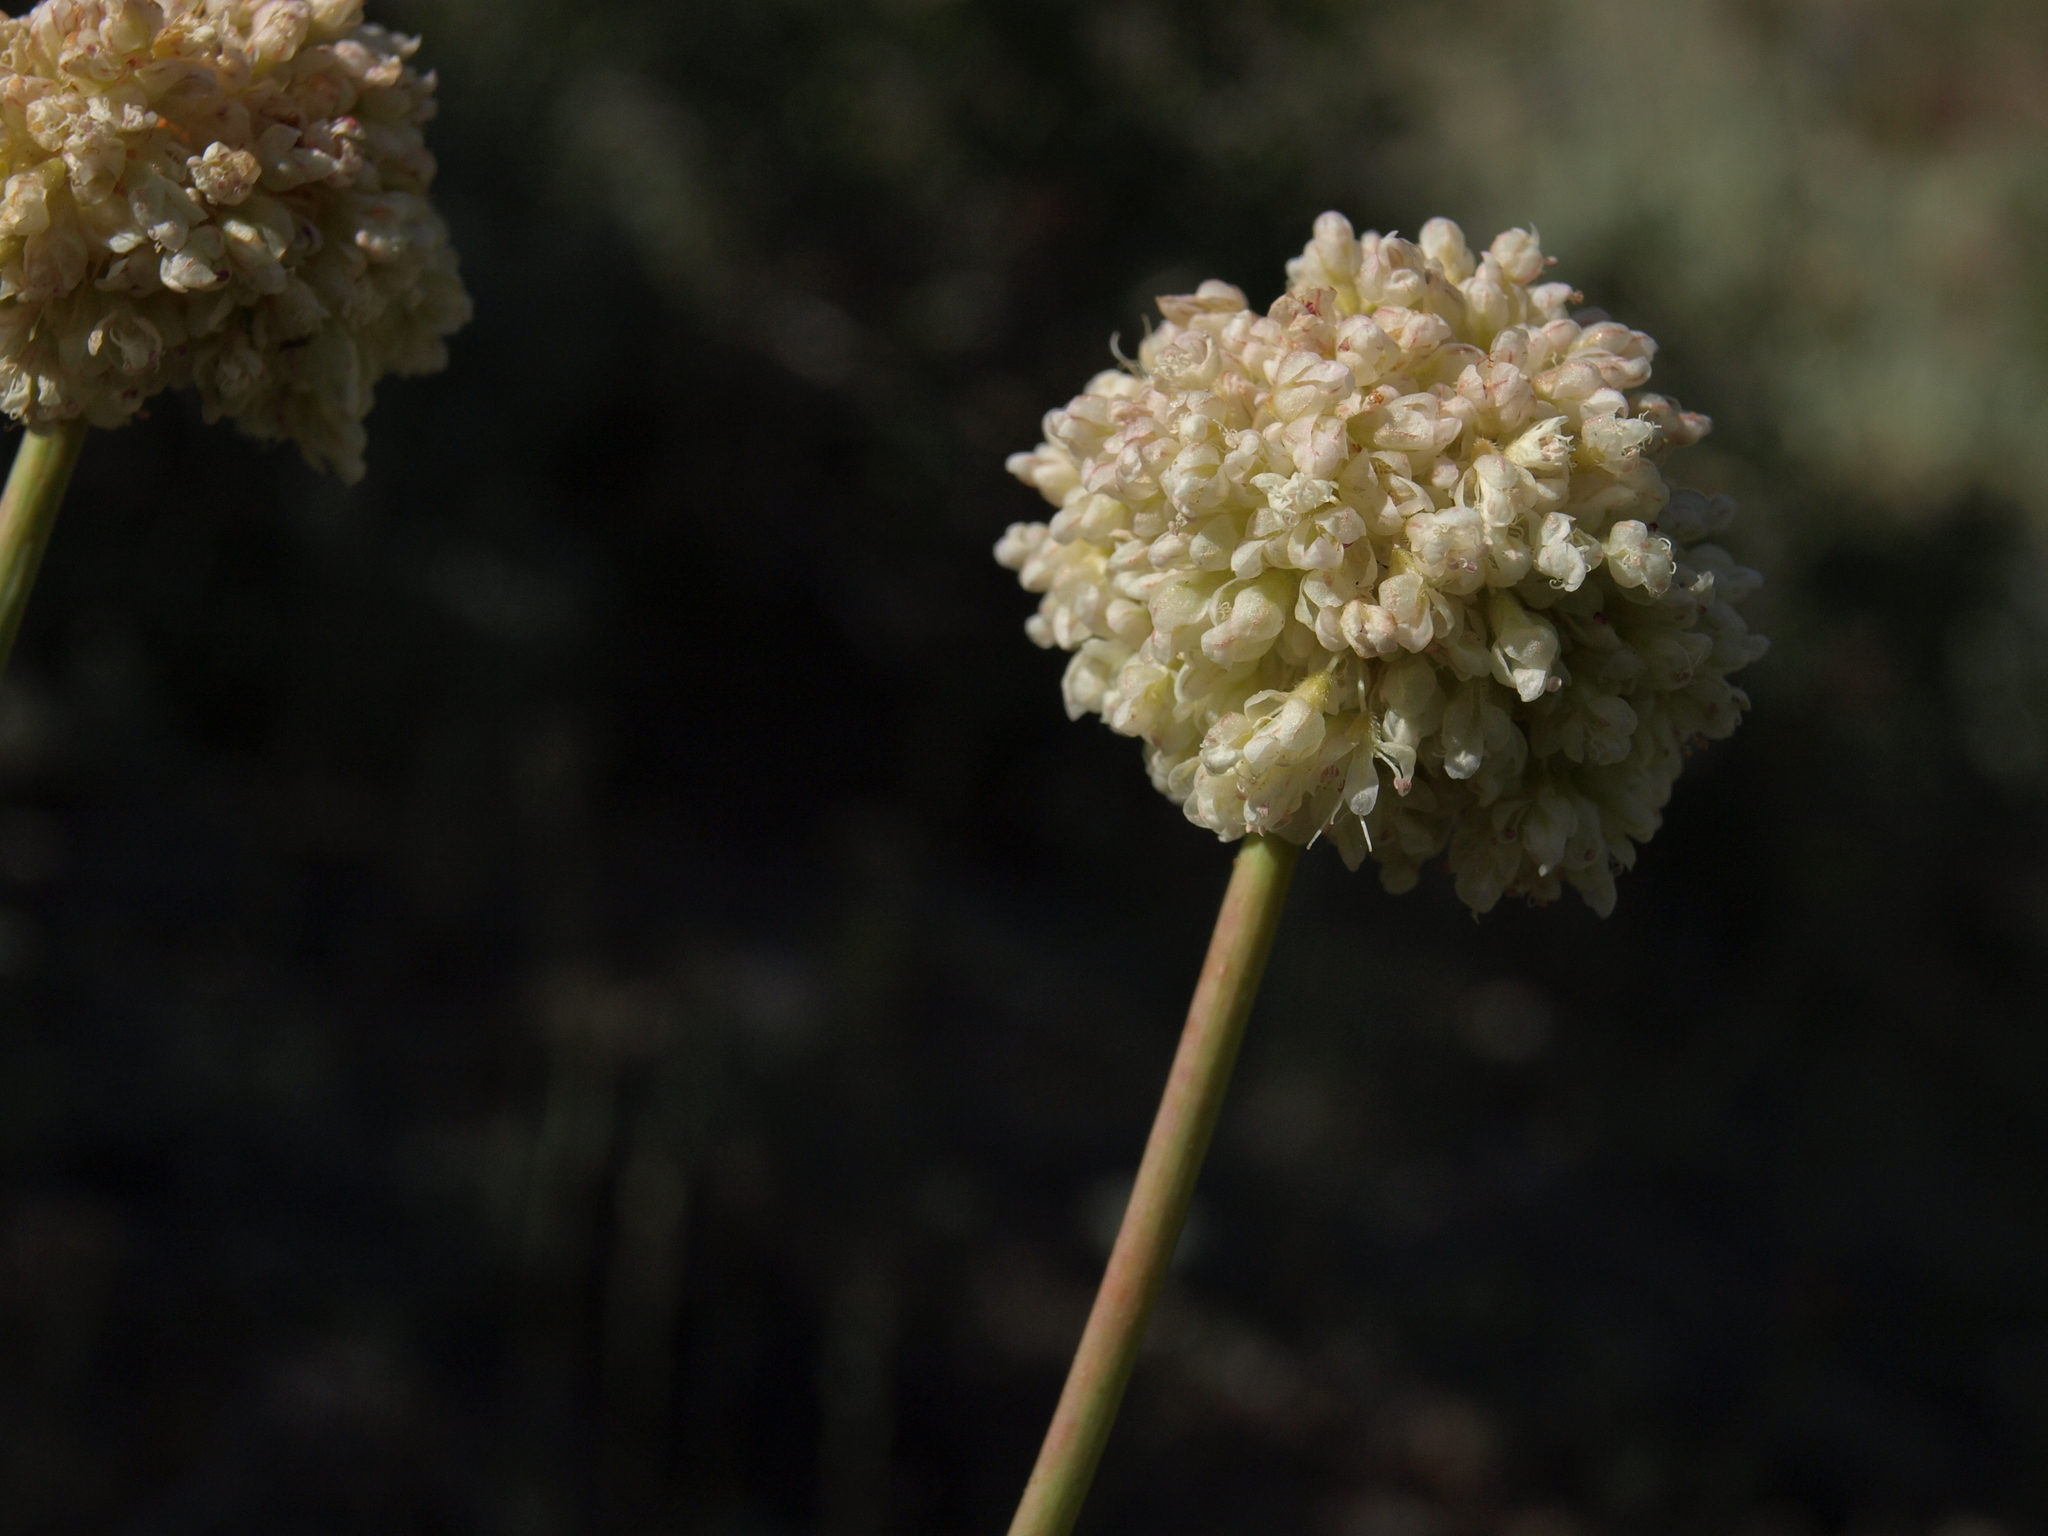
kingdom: Plantae
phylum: Tracheophyta
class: Magnoliopsida
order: Caryophyllales
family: Polygonaceae
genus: Eriogonum
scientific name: Eriogonum latens
